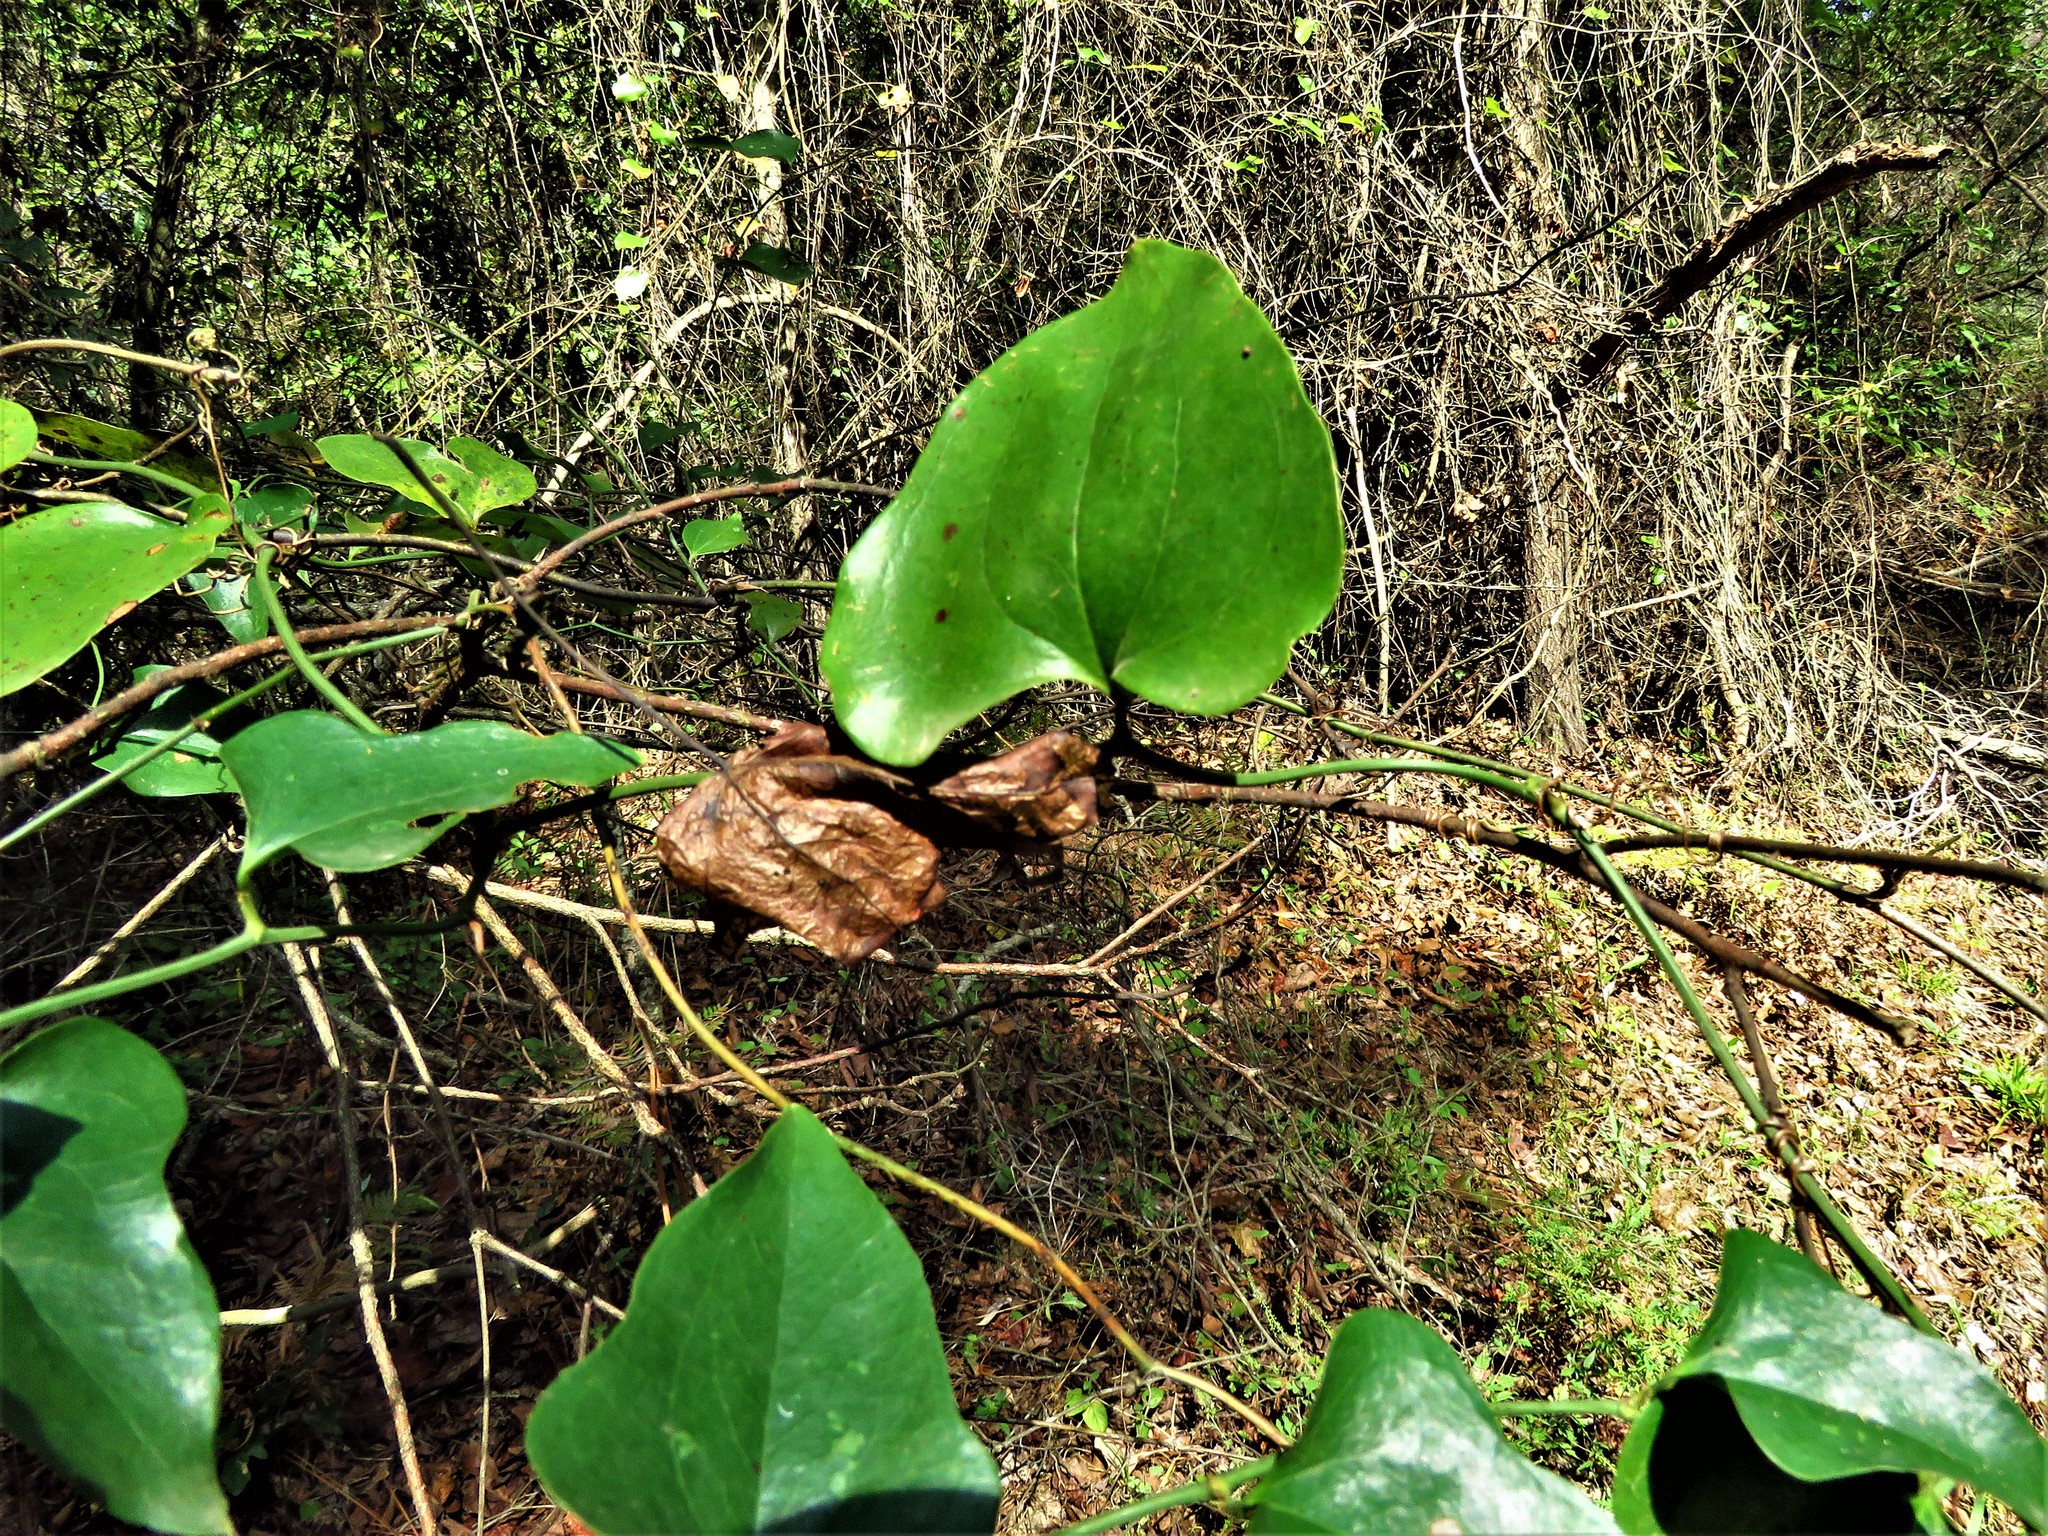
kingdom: Plantae
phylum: Tracheophyta
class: Liliopsida
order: Liliales
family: Smilacaceae
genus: Smilax
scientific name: Smilax bona-nox
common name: Catbrier
